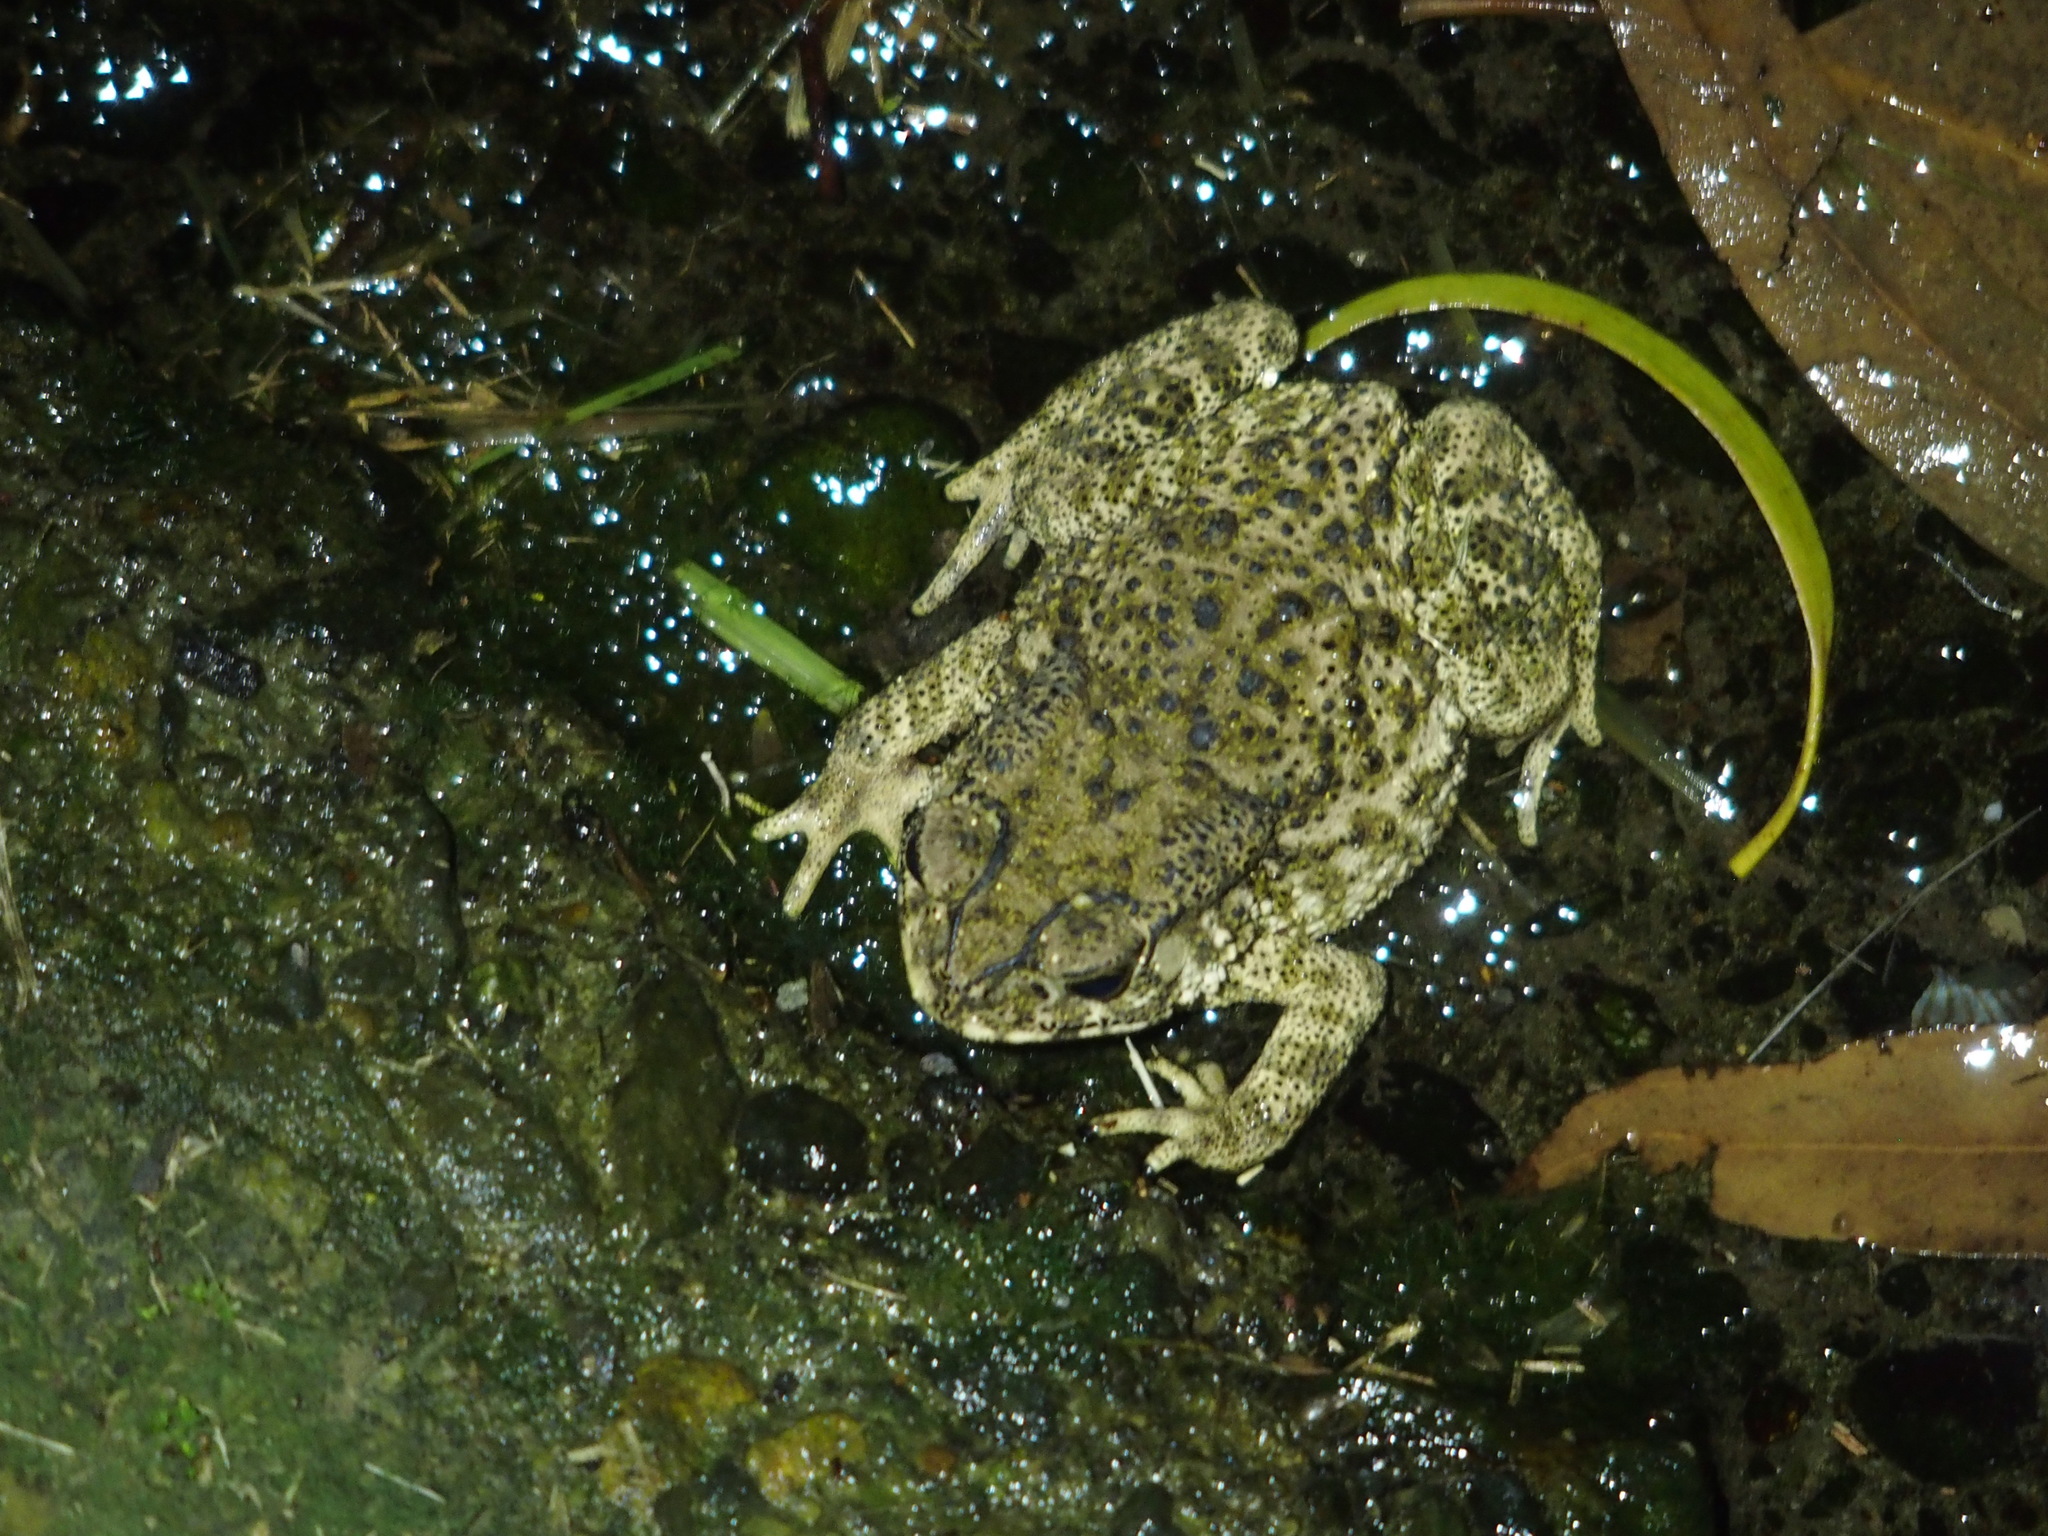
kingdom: Animalia
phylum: Chordata
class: Amphibia
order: Anura
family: Bufonidae
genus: Duttaphrynus
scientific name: Duttaphrynus melanostictus
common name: Common sunda toad
